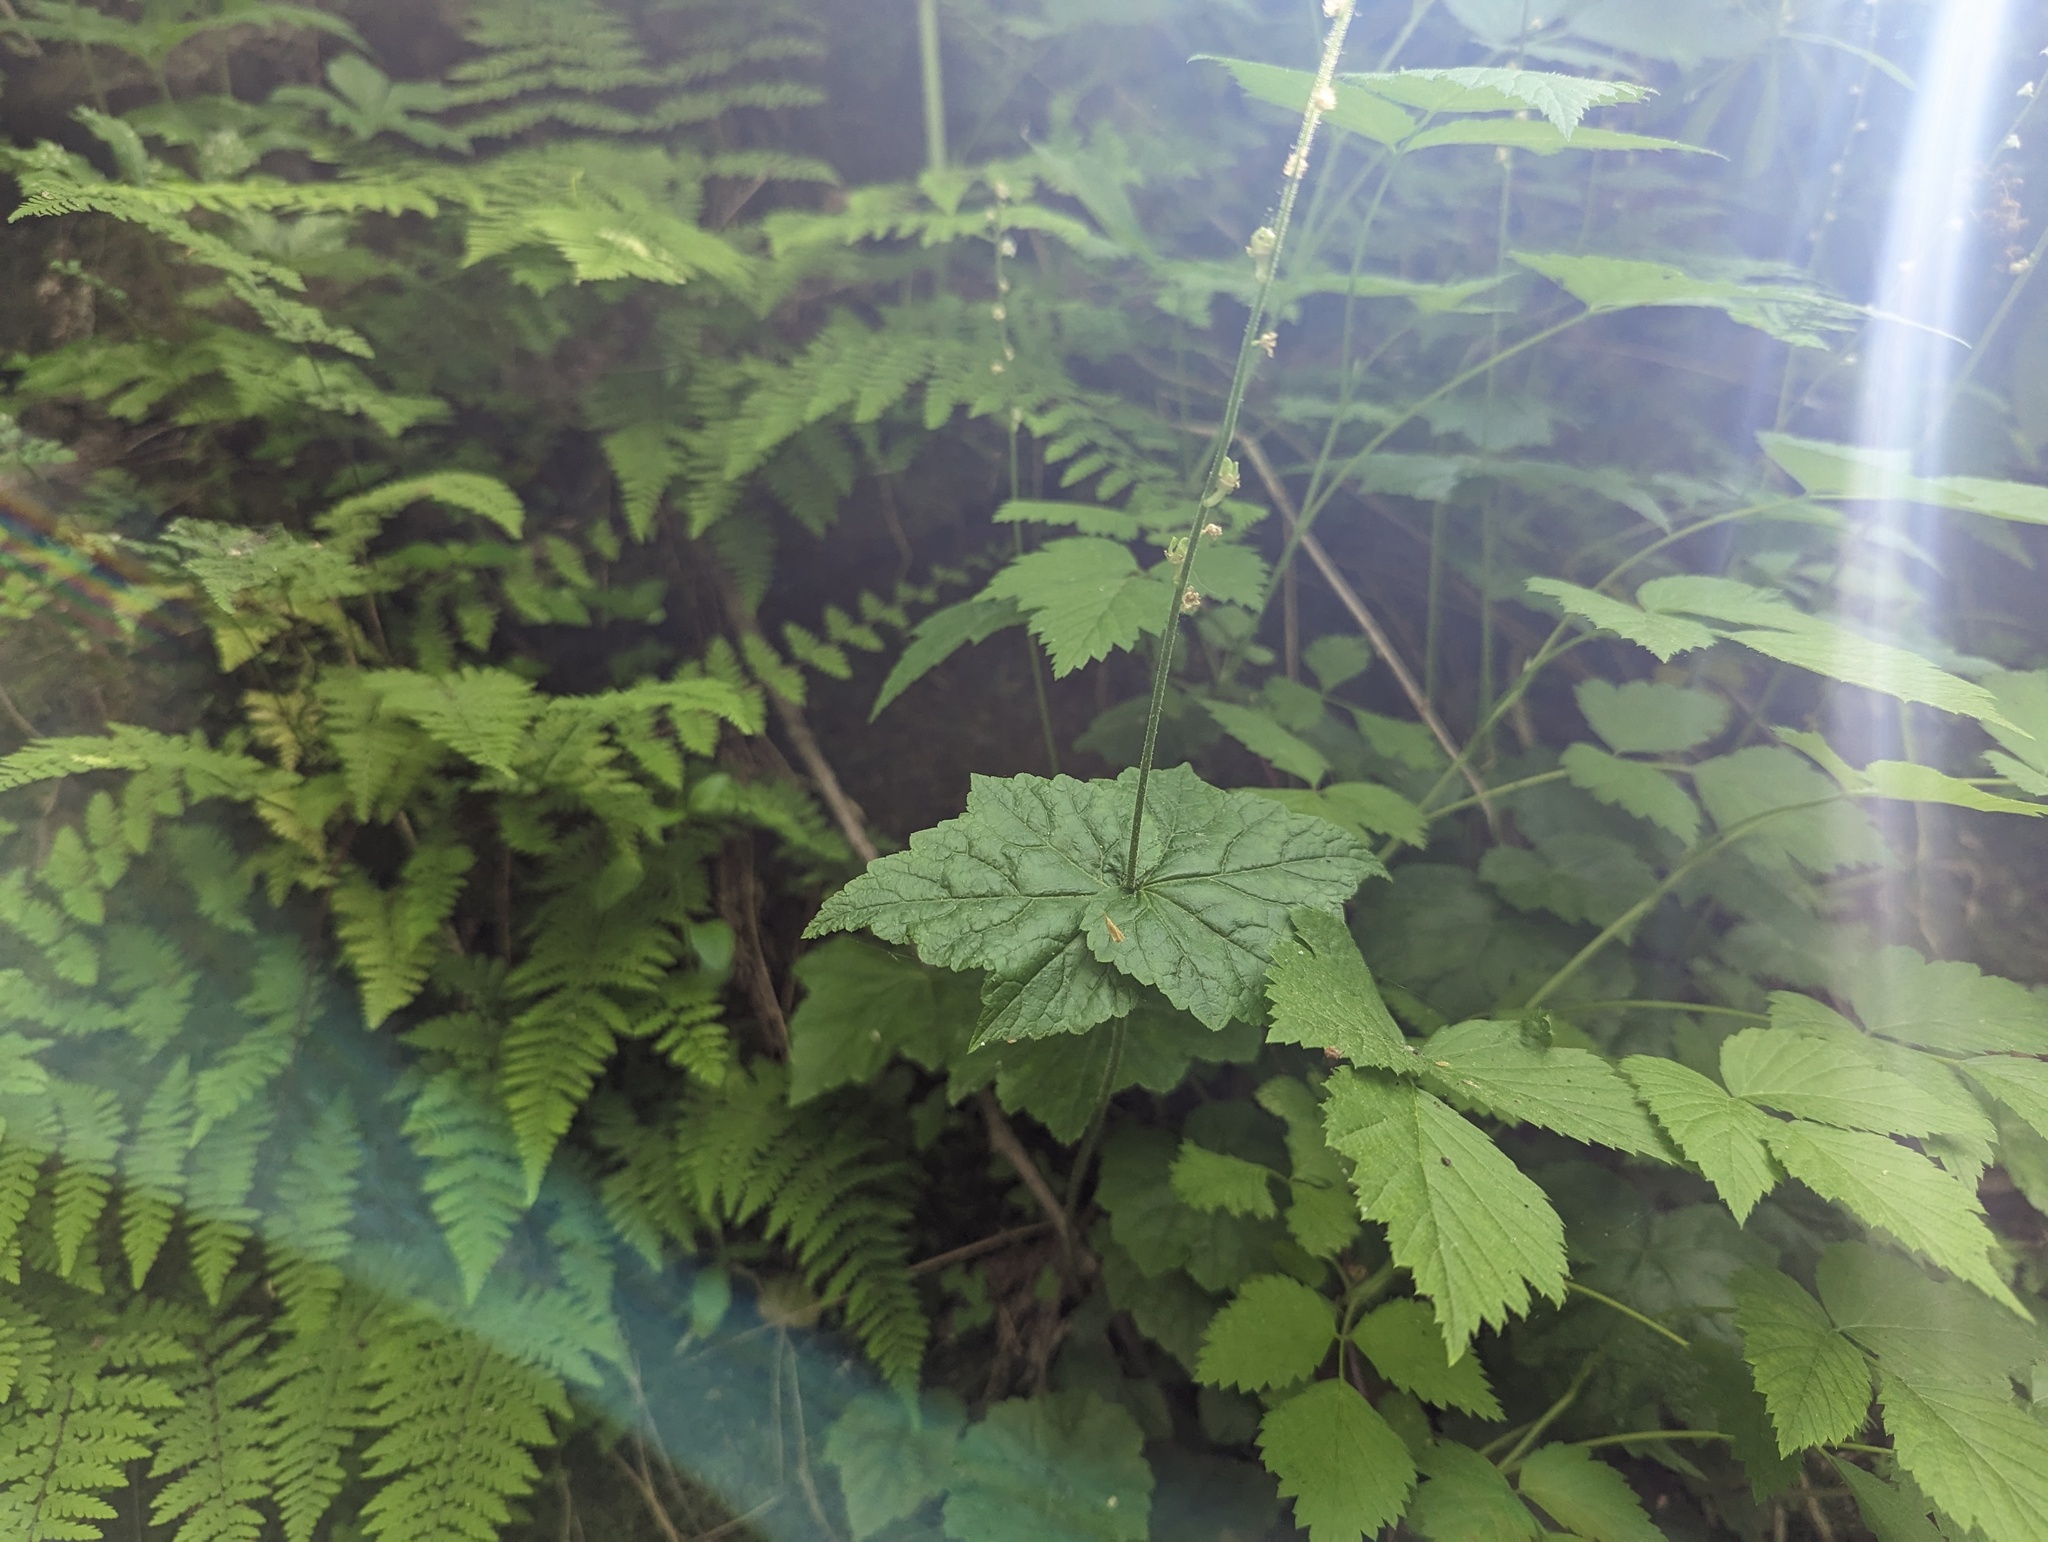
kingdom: Plantae
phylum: Tracheophyta
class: Magnoliopsida
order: Saxifragales
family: Saxifragaceae
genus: Mitella
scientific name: Mitella diphylla
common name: Coolwort
